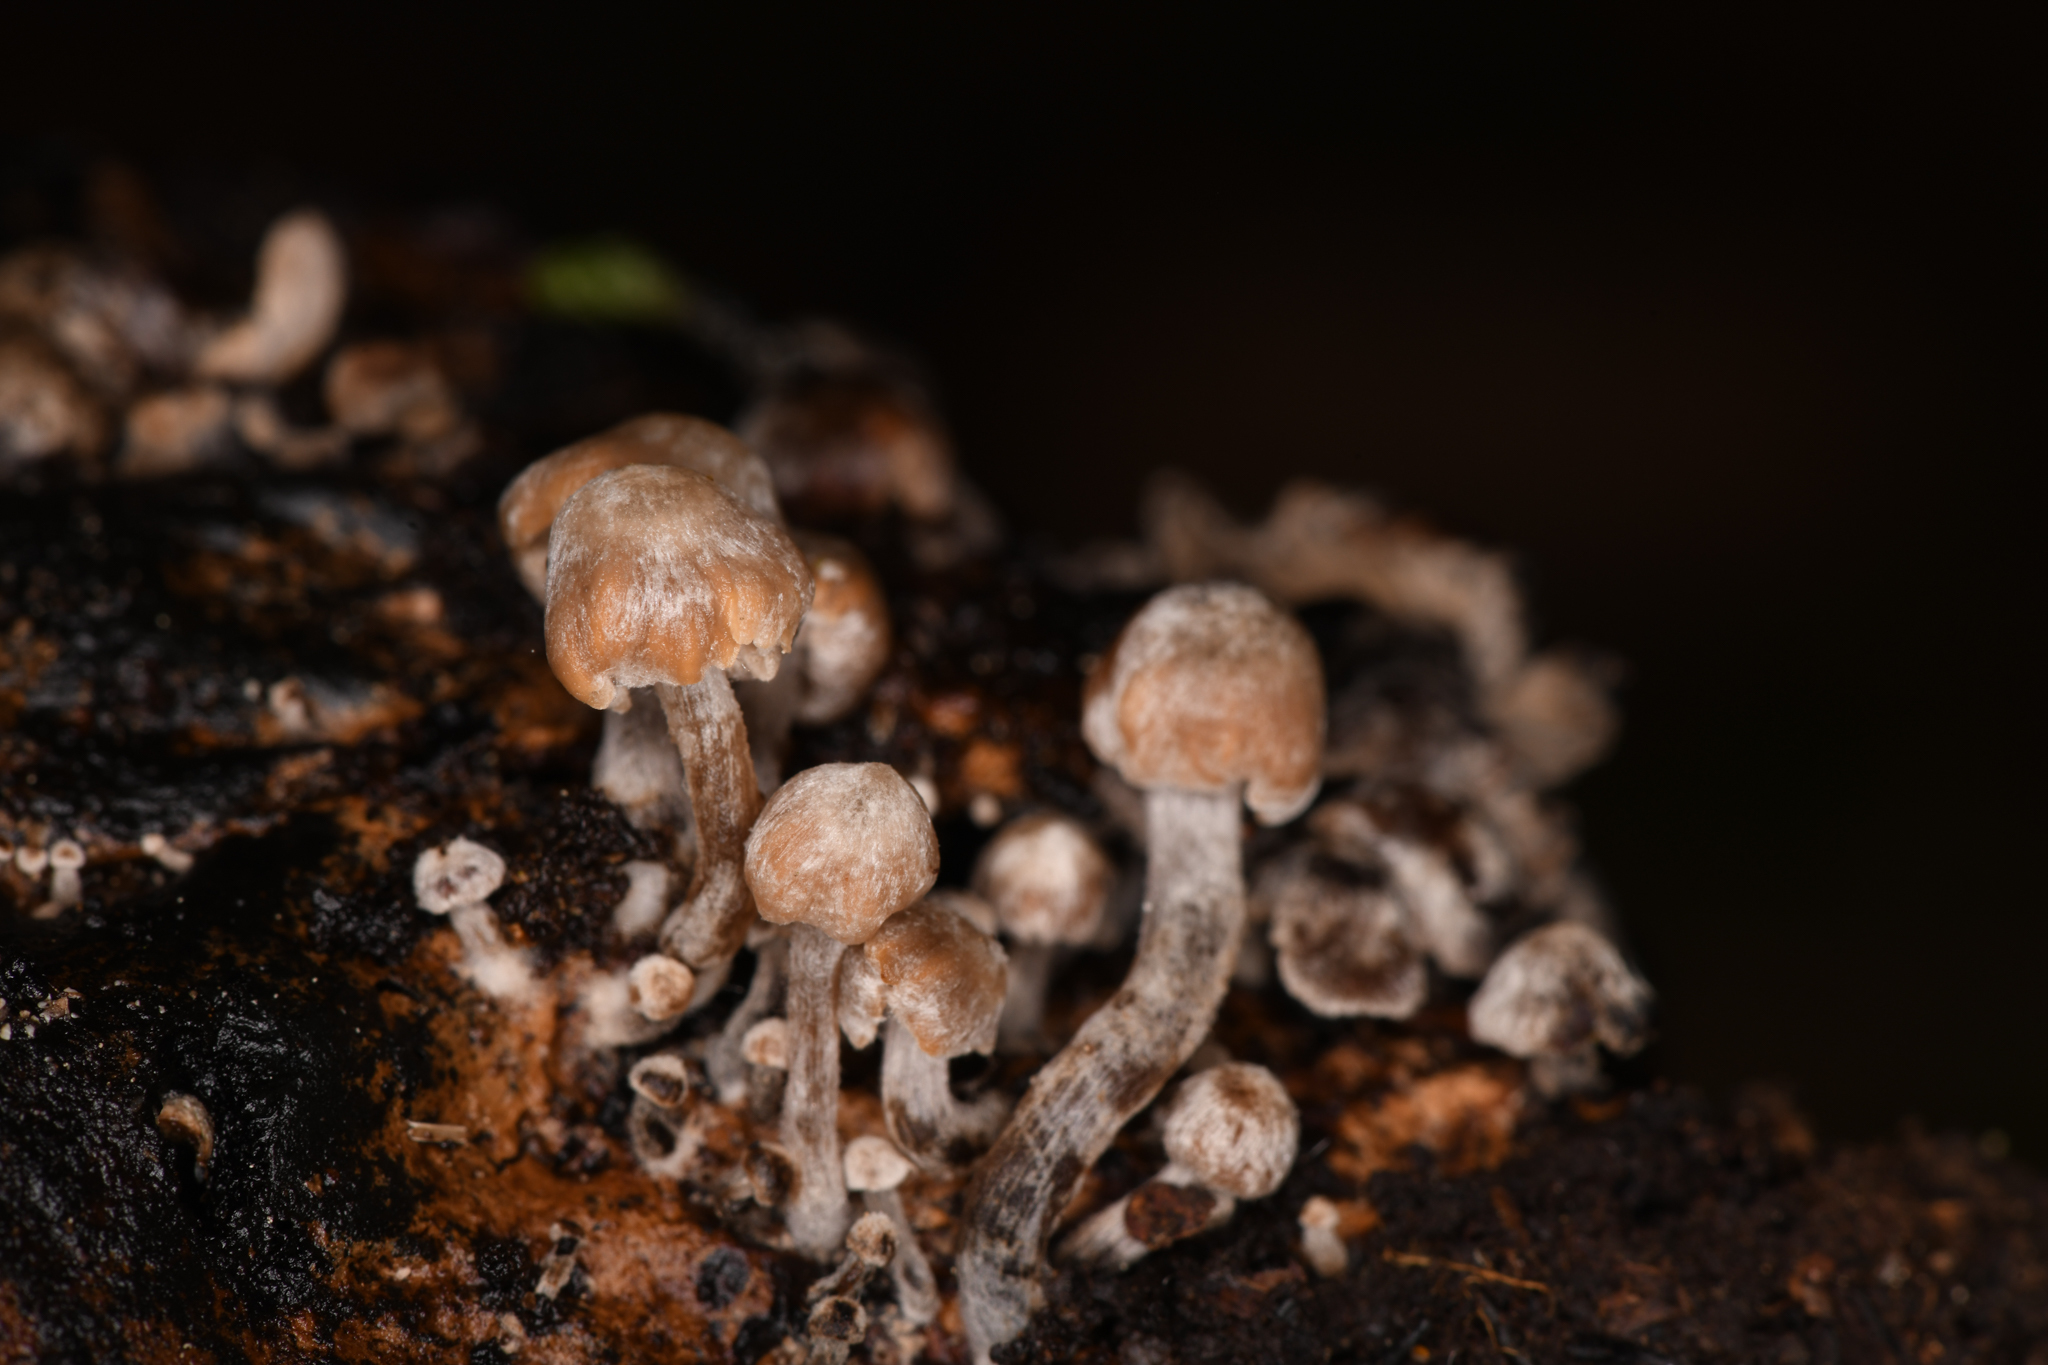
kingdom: Fungi
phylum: Basidiomycota
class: Agaricomycetes
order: Agaricales
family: Lyophyllaceae
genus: Asterophora
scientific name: Asterophora parasitica
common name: Silky piggyback
